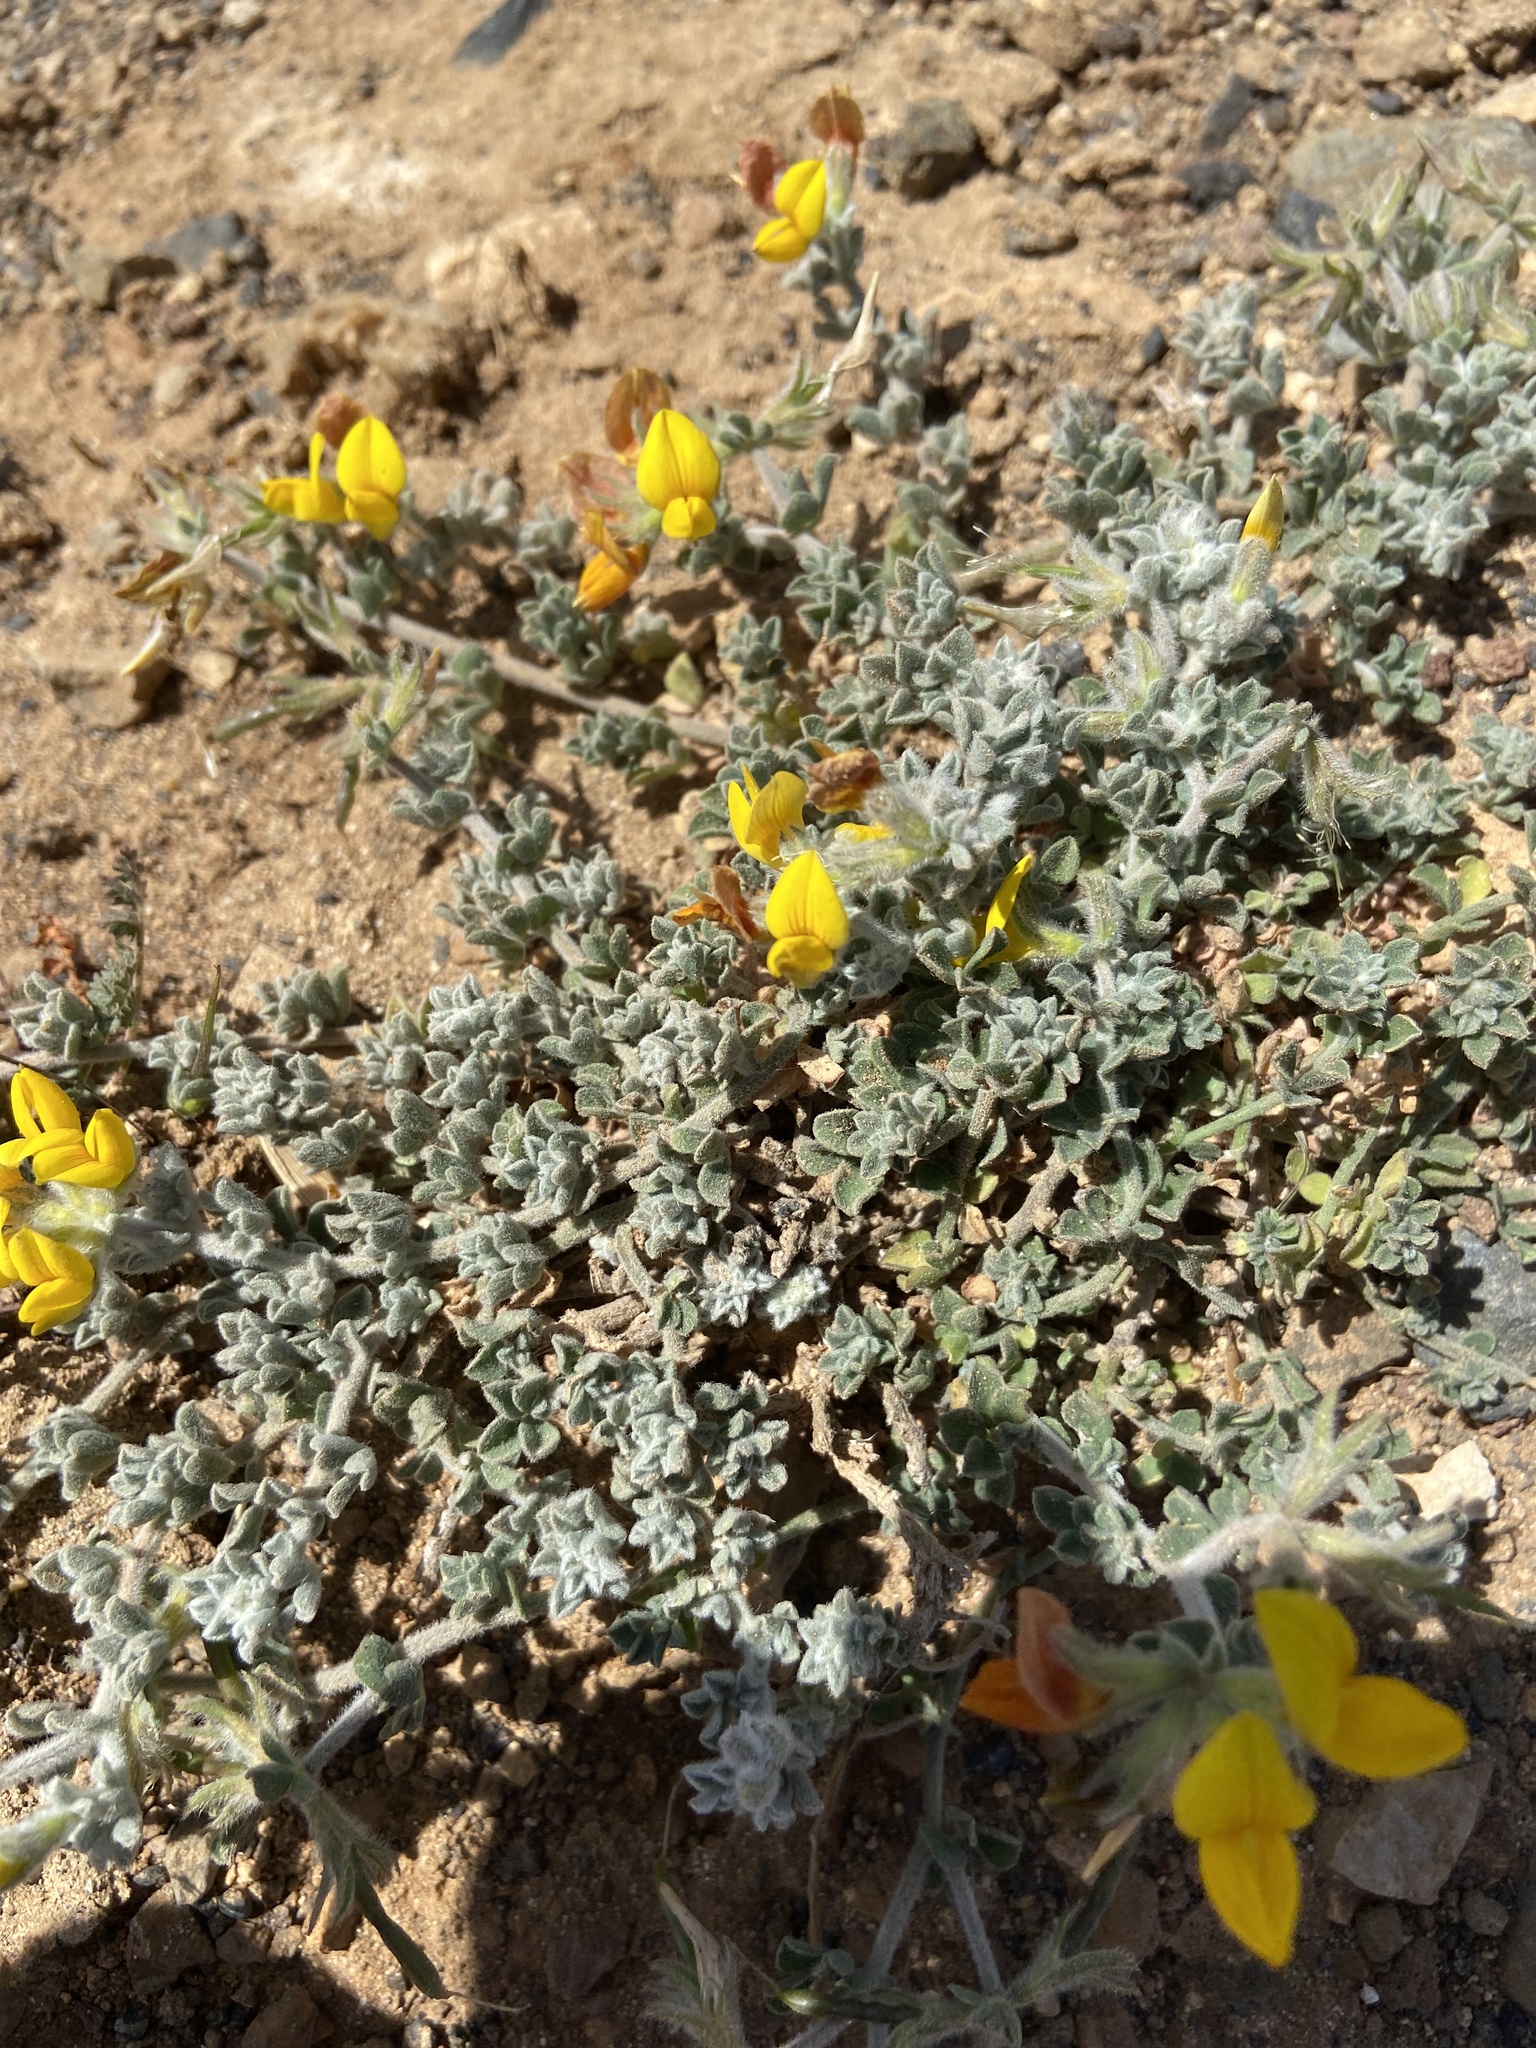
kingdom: Plantae
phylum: Tracheophyta
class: Magnoliopsida
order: Fabales
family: Fabaceae
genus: Lotus
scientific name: Lotus lancerottensis
